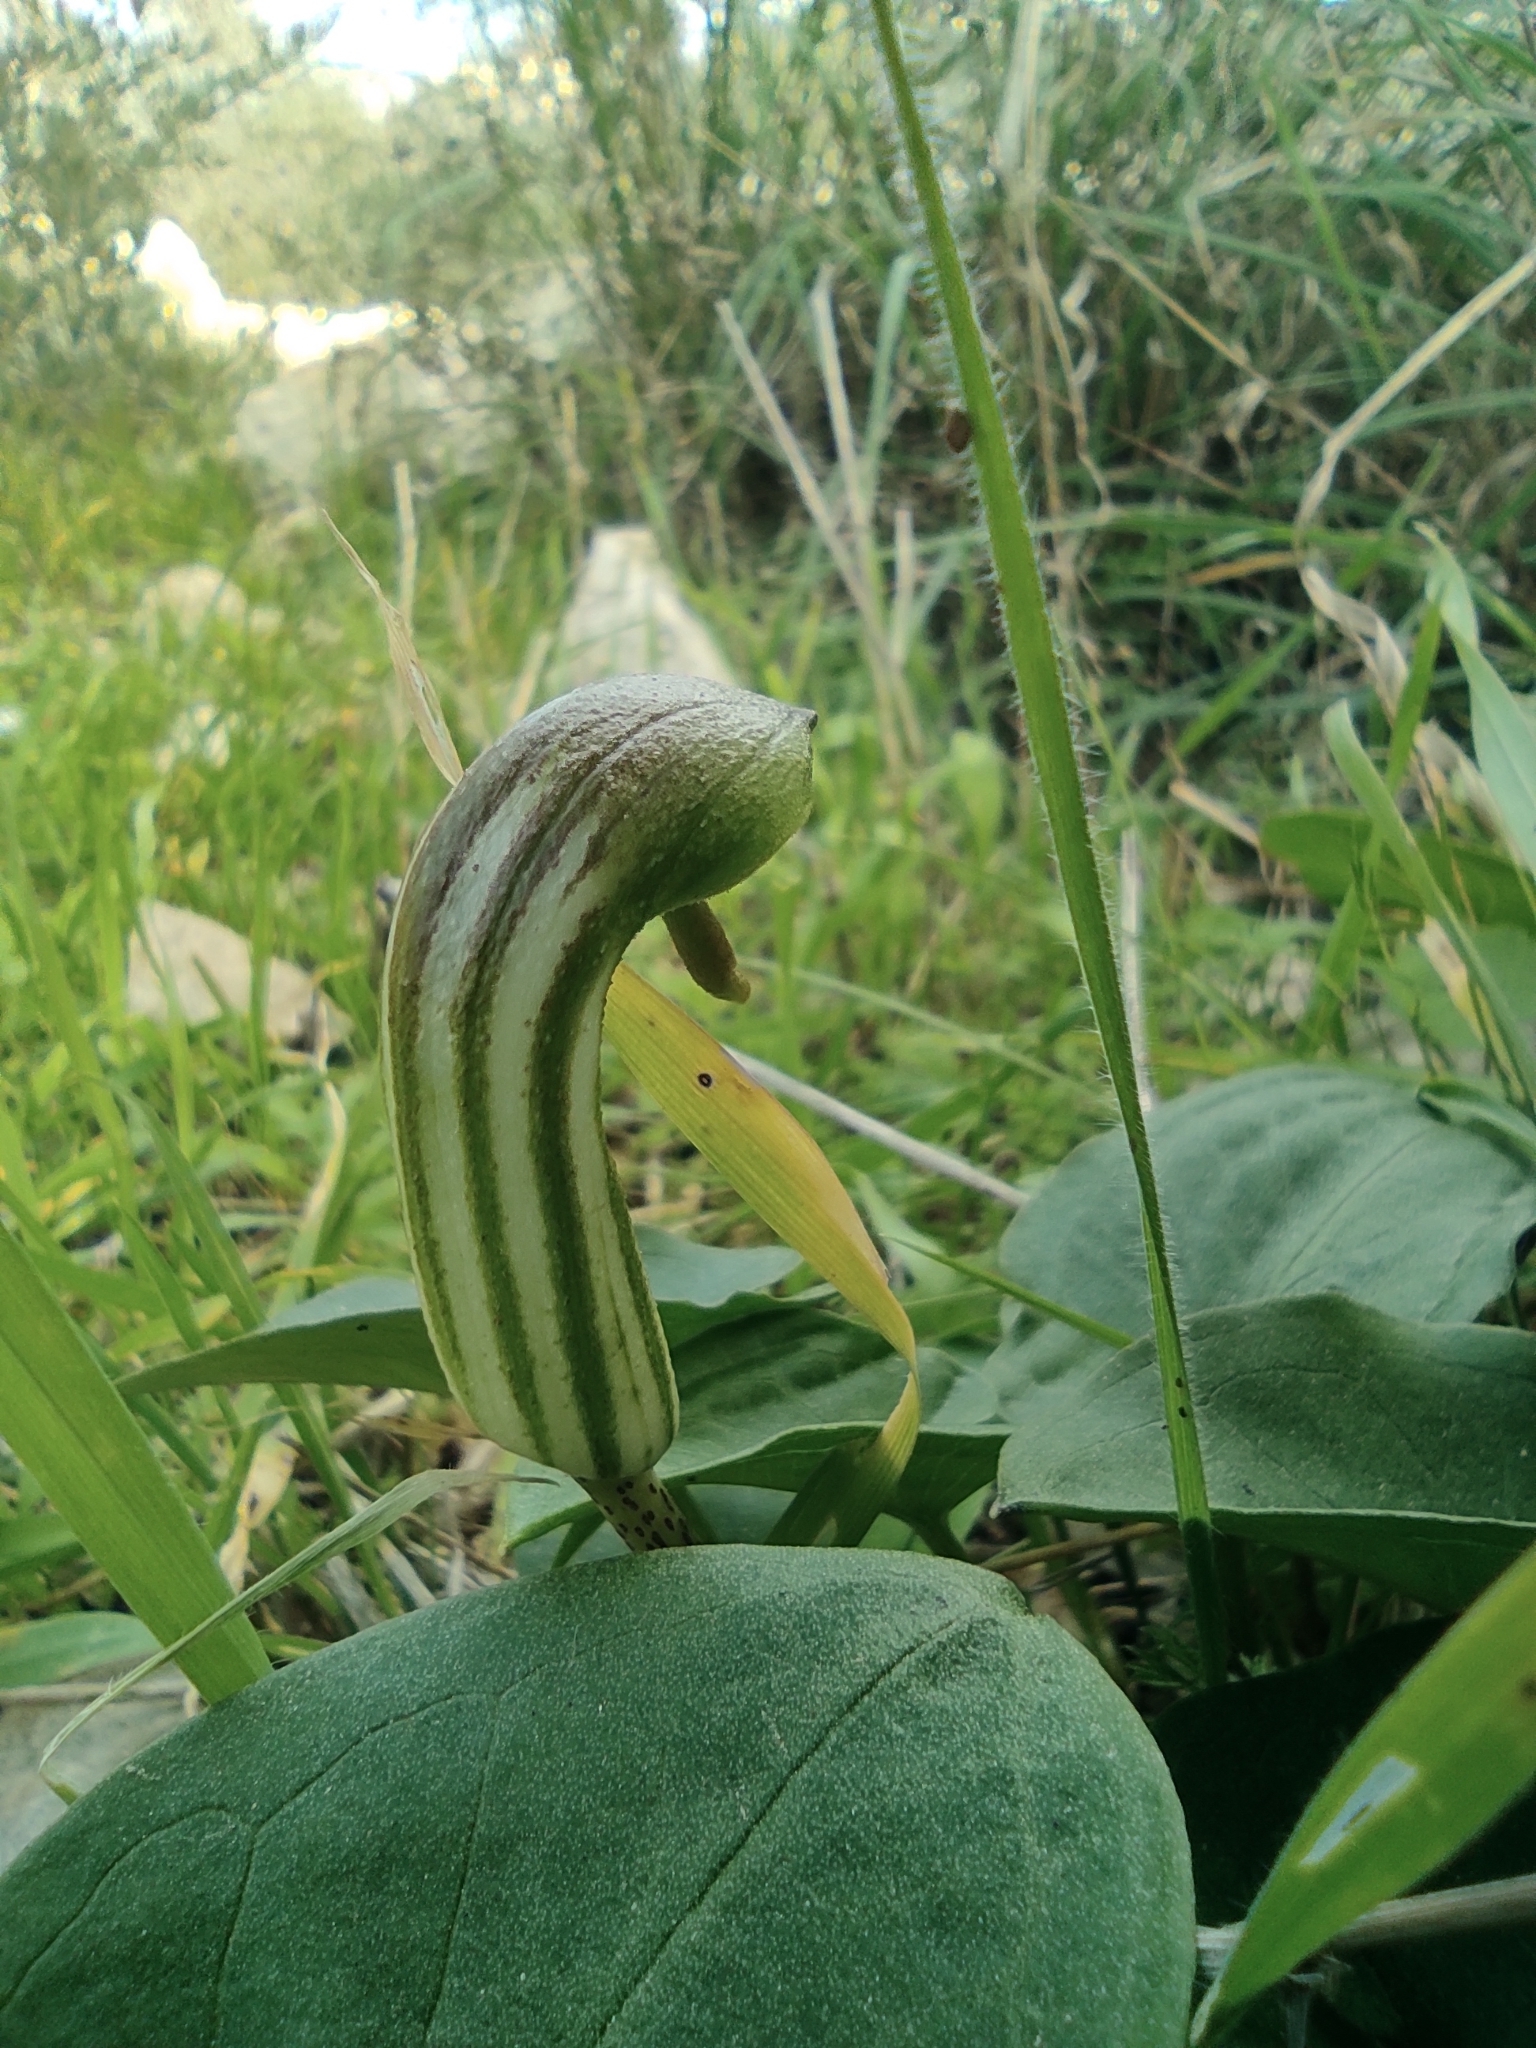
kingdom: Plantae
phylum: Tracheophyta
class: Liliopsida
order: Alismatales
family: Araceae
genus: Arisarum
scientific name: Arisarum vulgare
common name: Common arisarum
